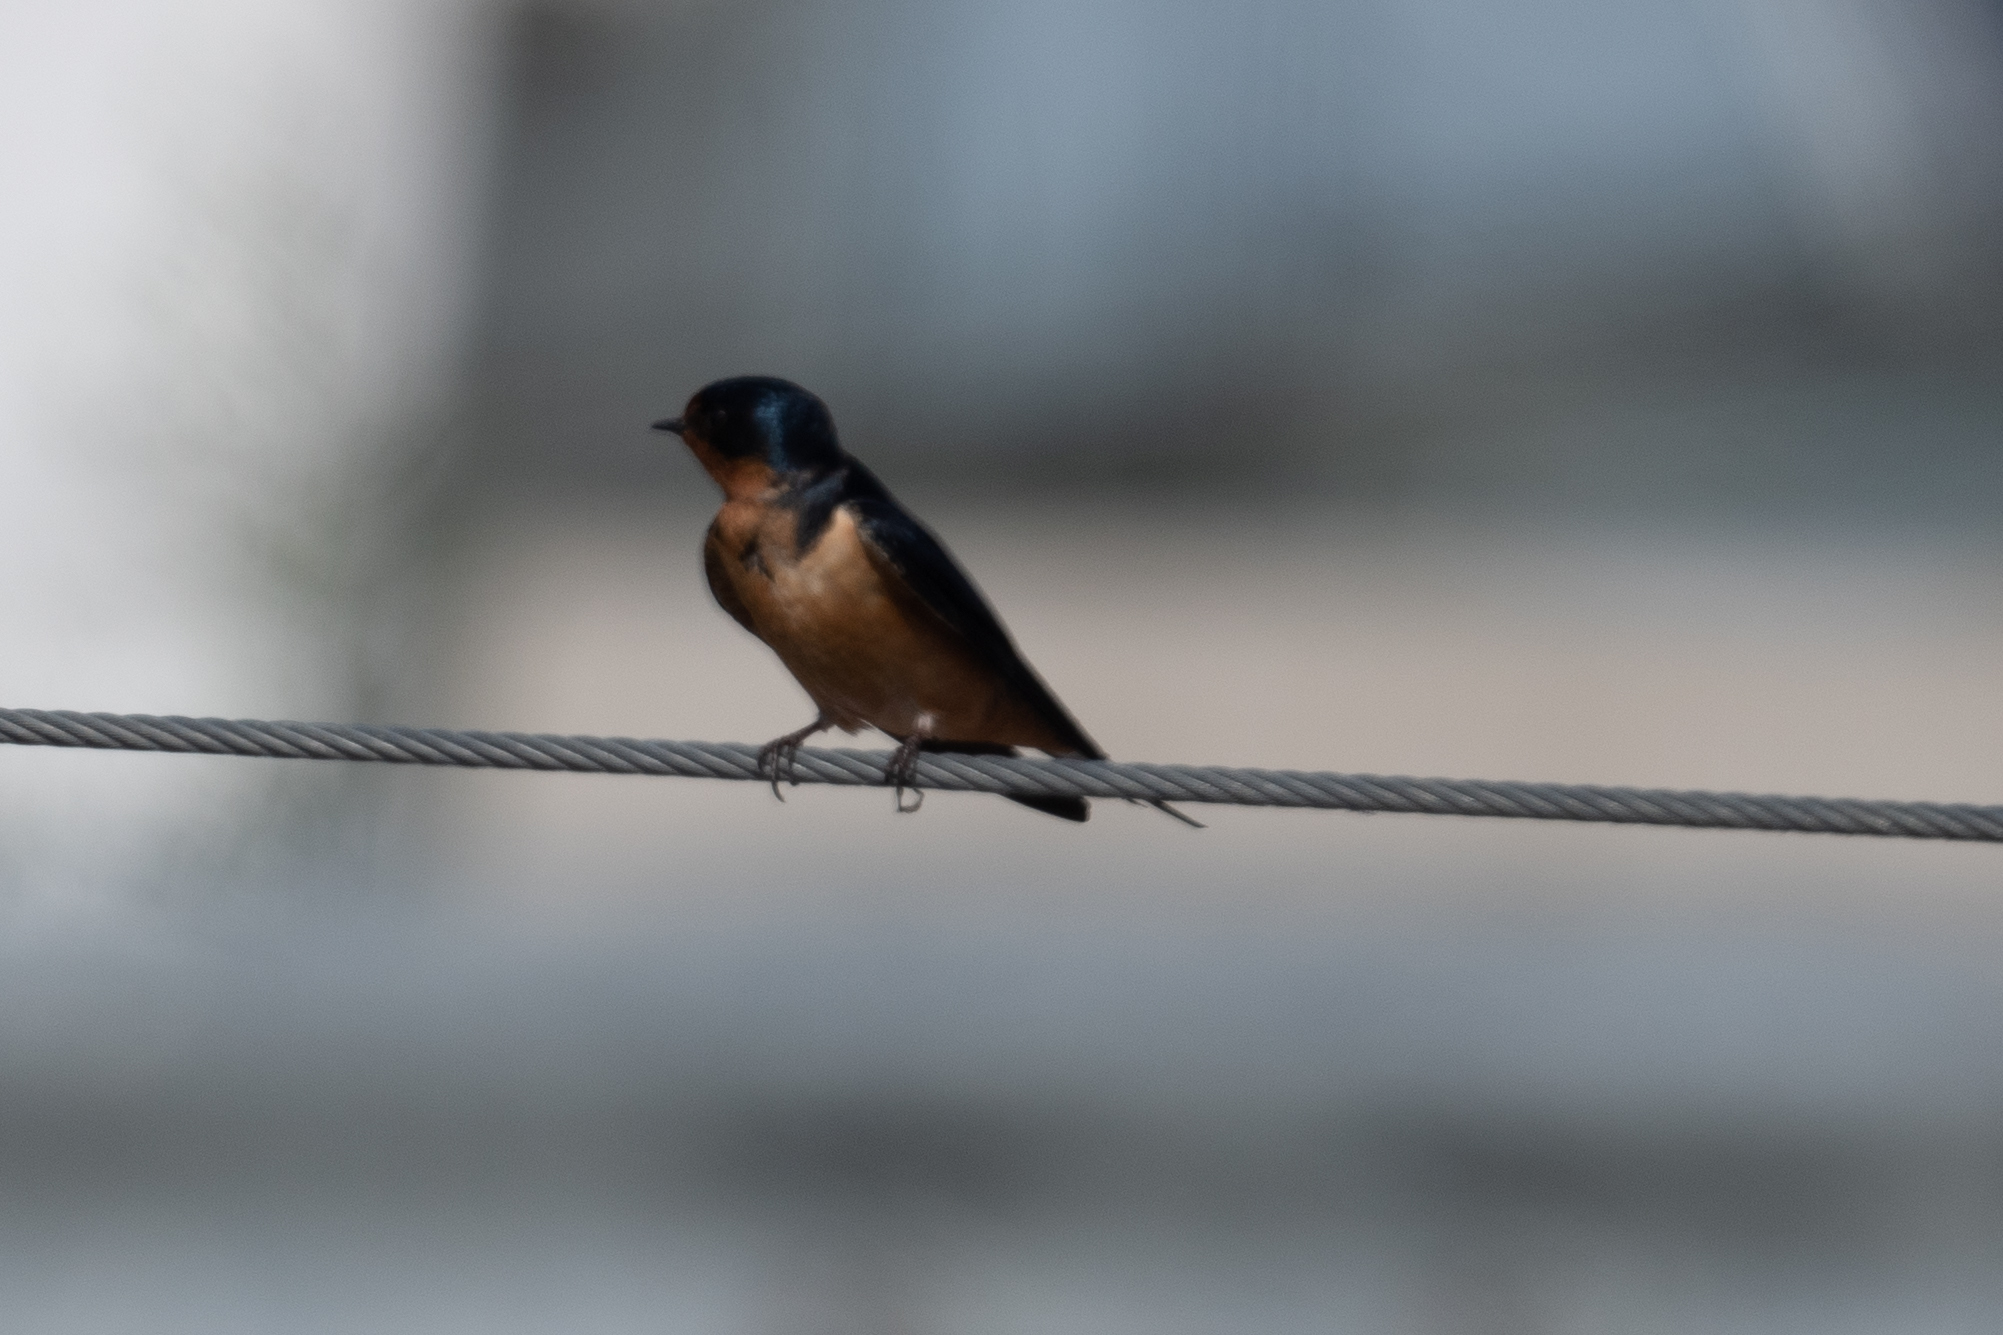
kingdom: Animalia
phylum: Chordata
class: Aves
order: Passeriformes
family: Hirundinidae
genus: Hirundo
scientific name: Hirundo rustica
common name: Barn swallow
